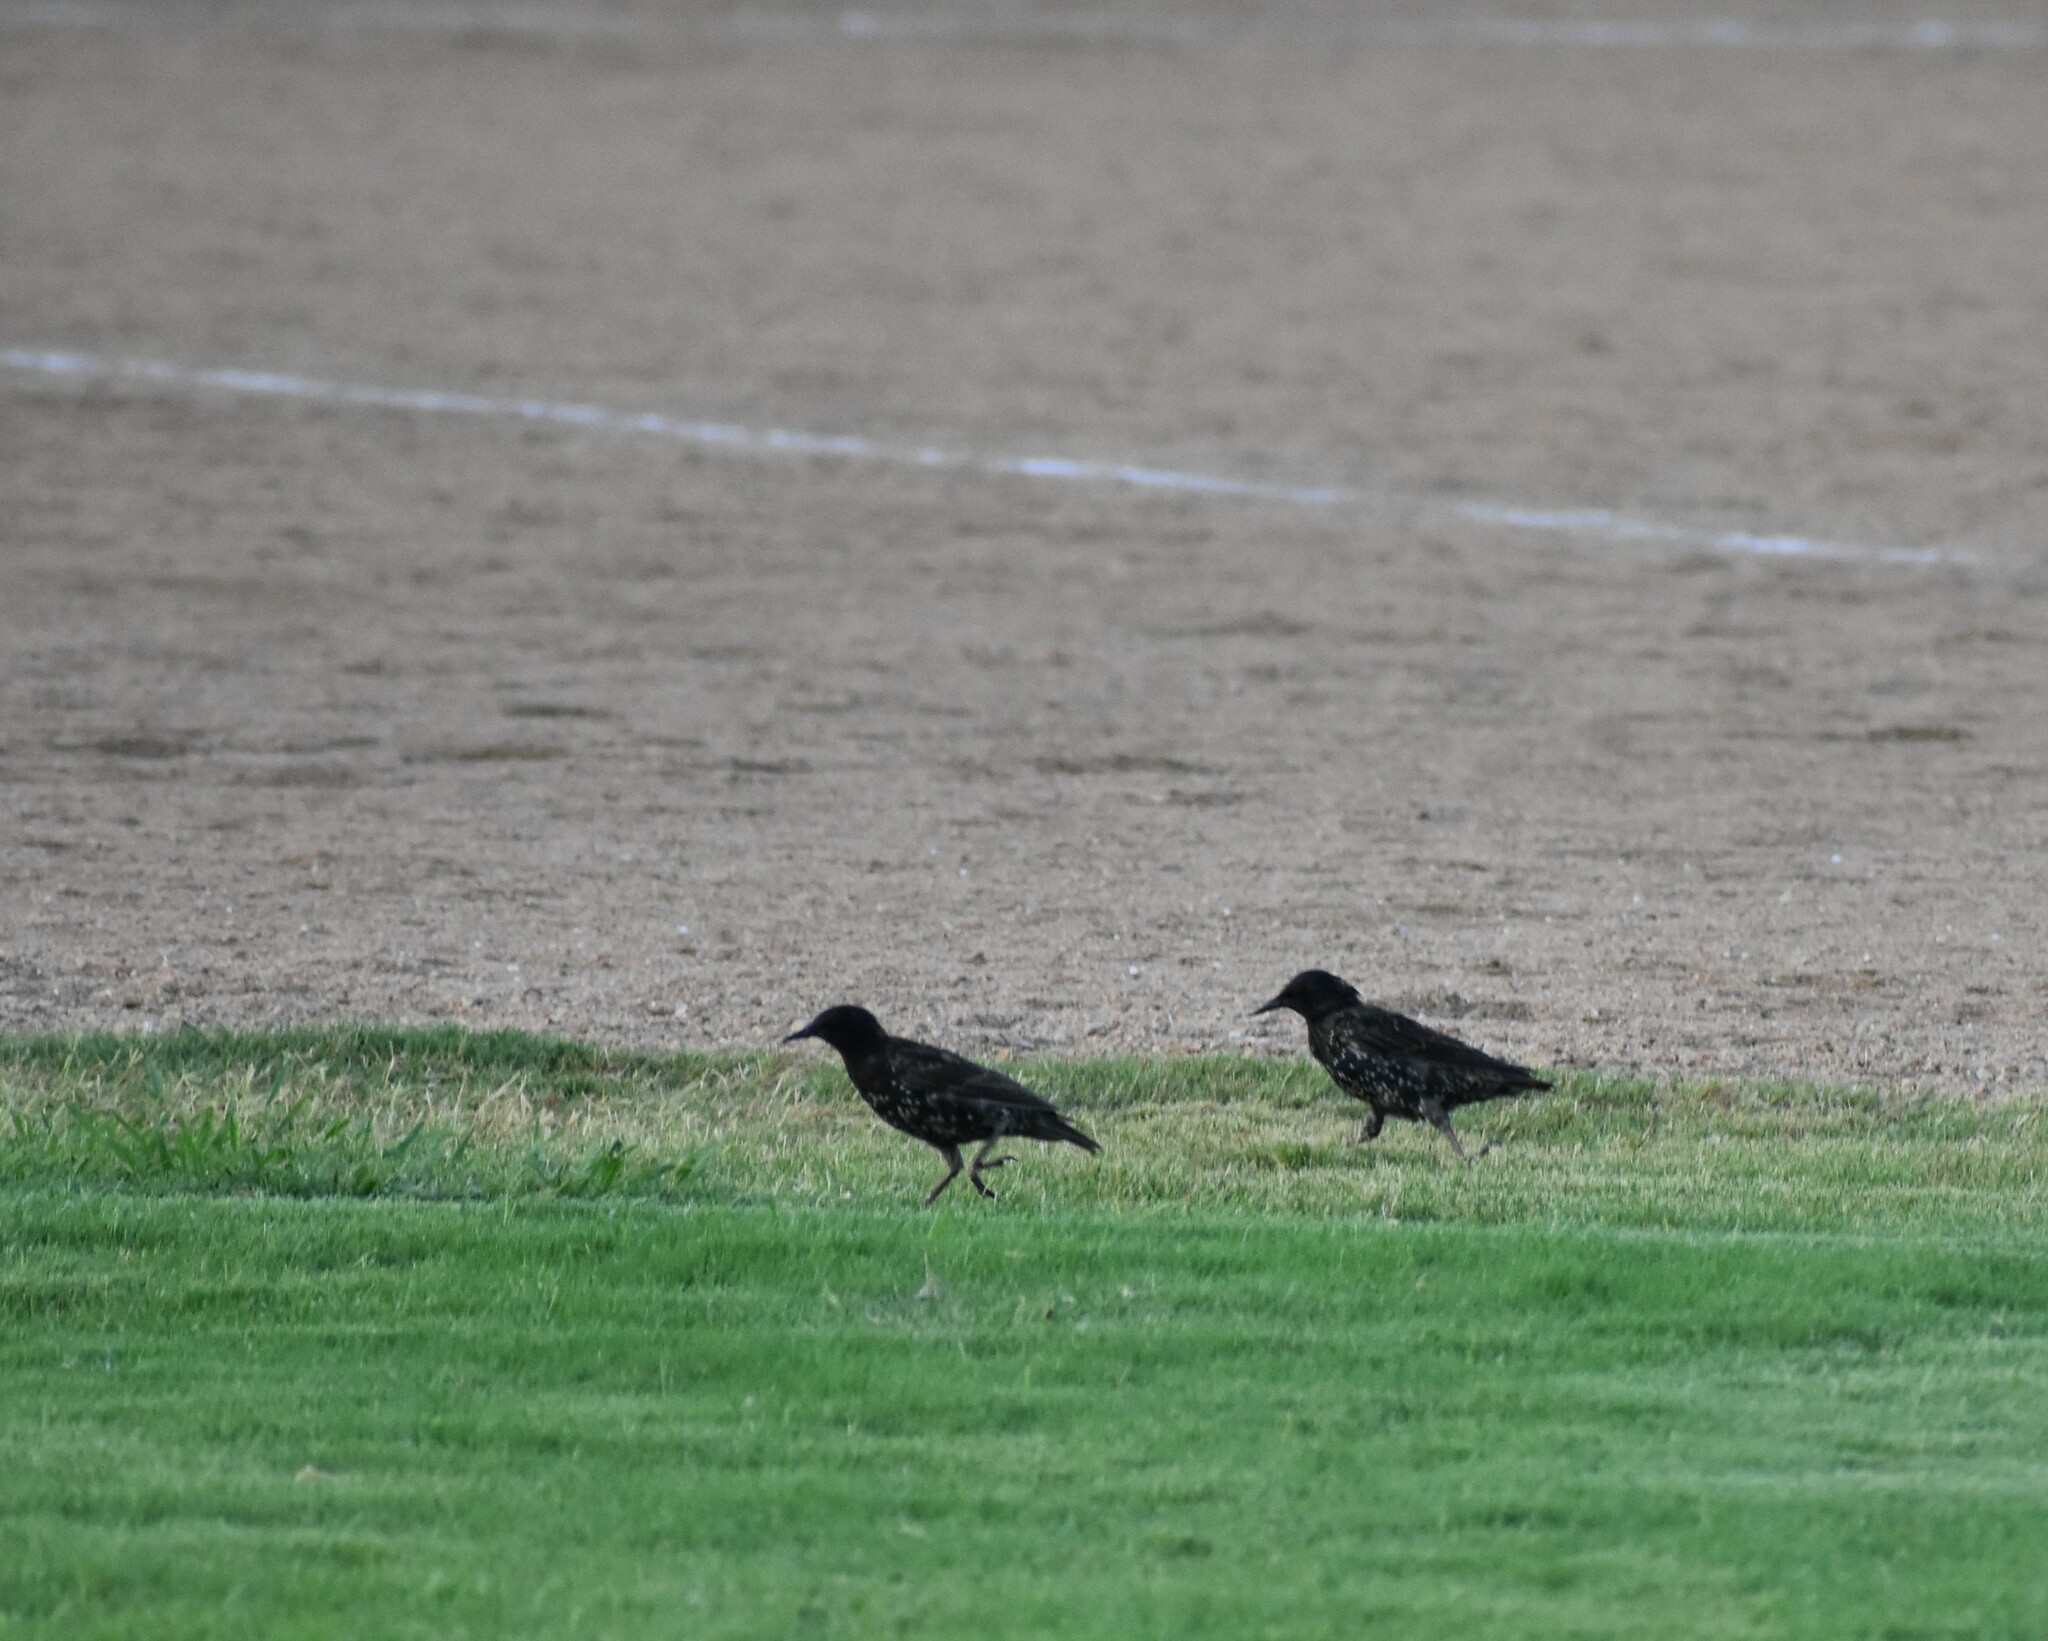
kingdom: Animalia
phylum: Chordata
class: Aves
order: Passeriformes
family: Sturnidae
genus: Sturnus
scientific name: Sturnus vulgaris
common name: Common starling
